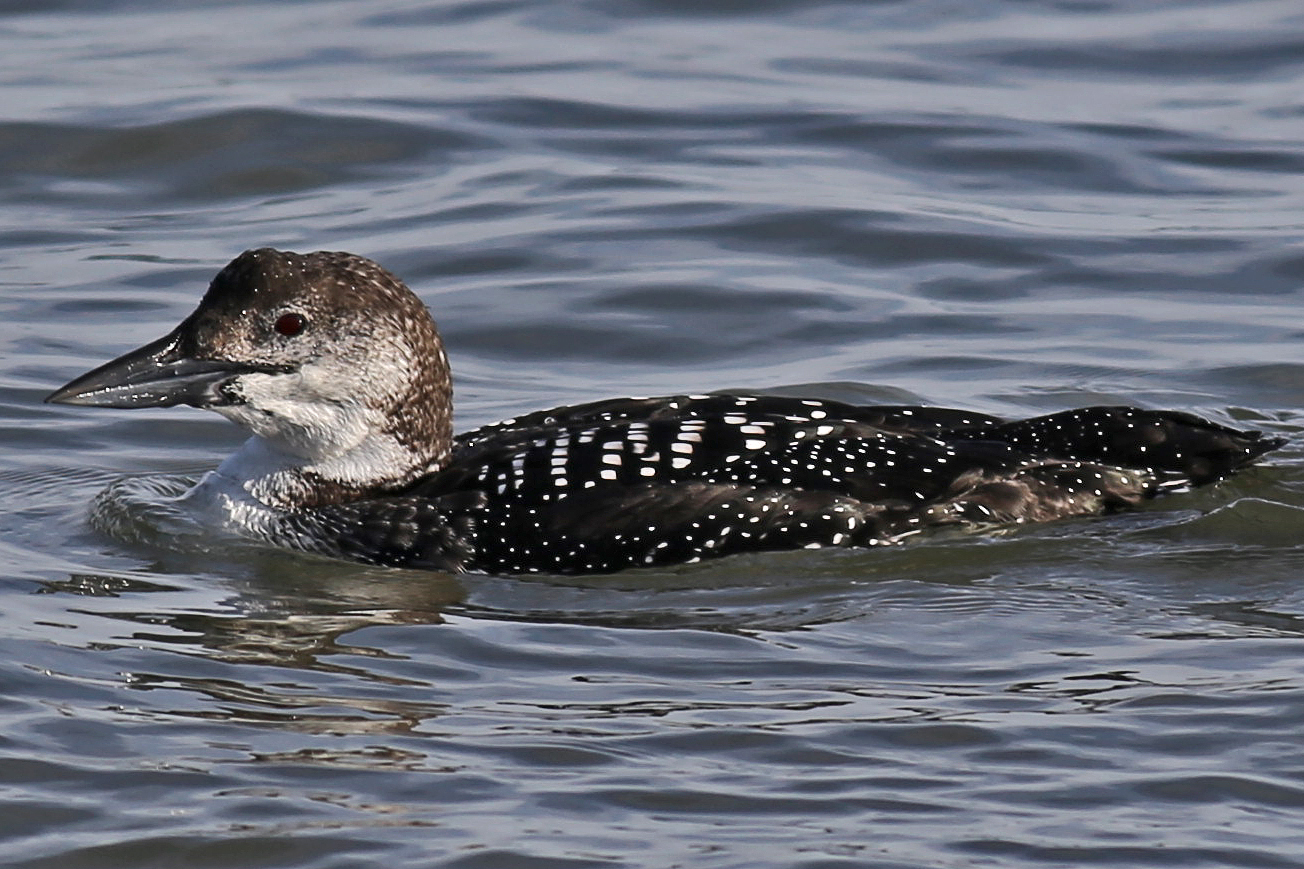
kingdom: Animalia
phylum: Chordata
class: Aves
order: Gaviiformes
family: Gaviidae
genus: Gavia
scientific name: Gavia immer
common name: Common loon
